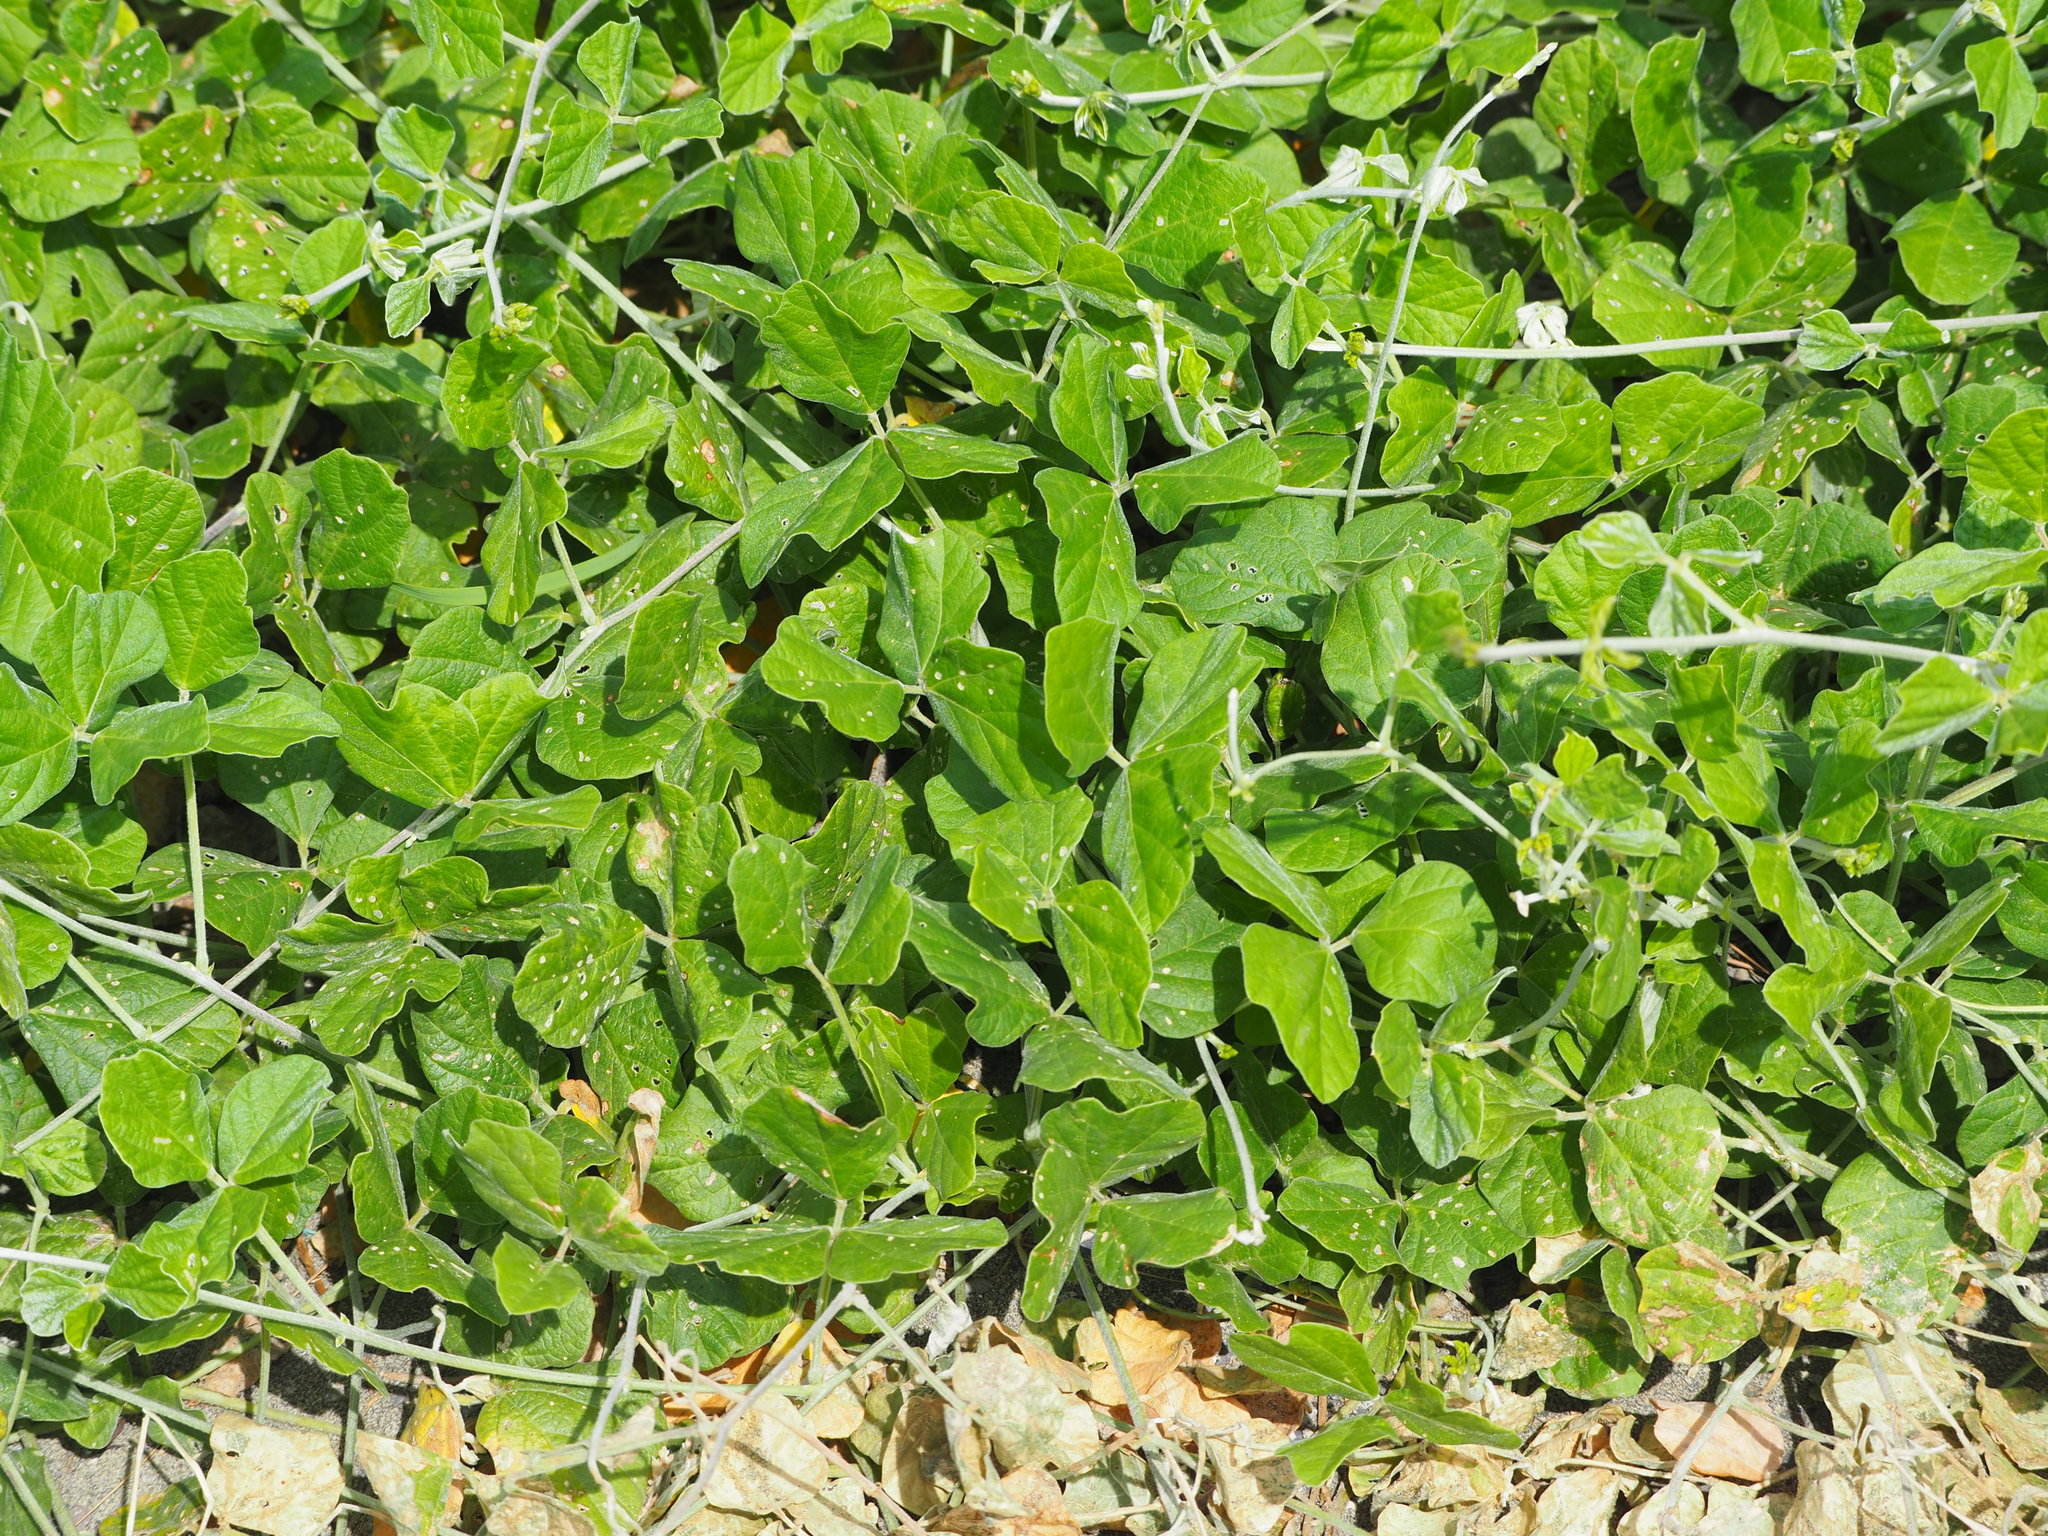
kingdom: Plantae
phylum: Tracheophyta
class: Magnoliopsida
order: Fabales
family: Fabaceae
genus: Macroptilium
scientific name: Macroptilium atropurpureum
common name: Purple bushbean
